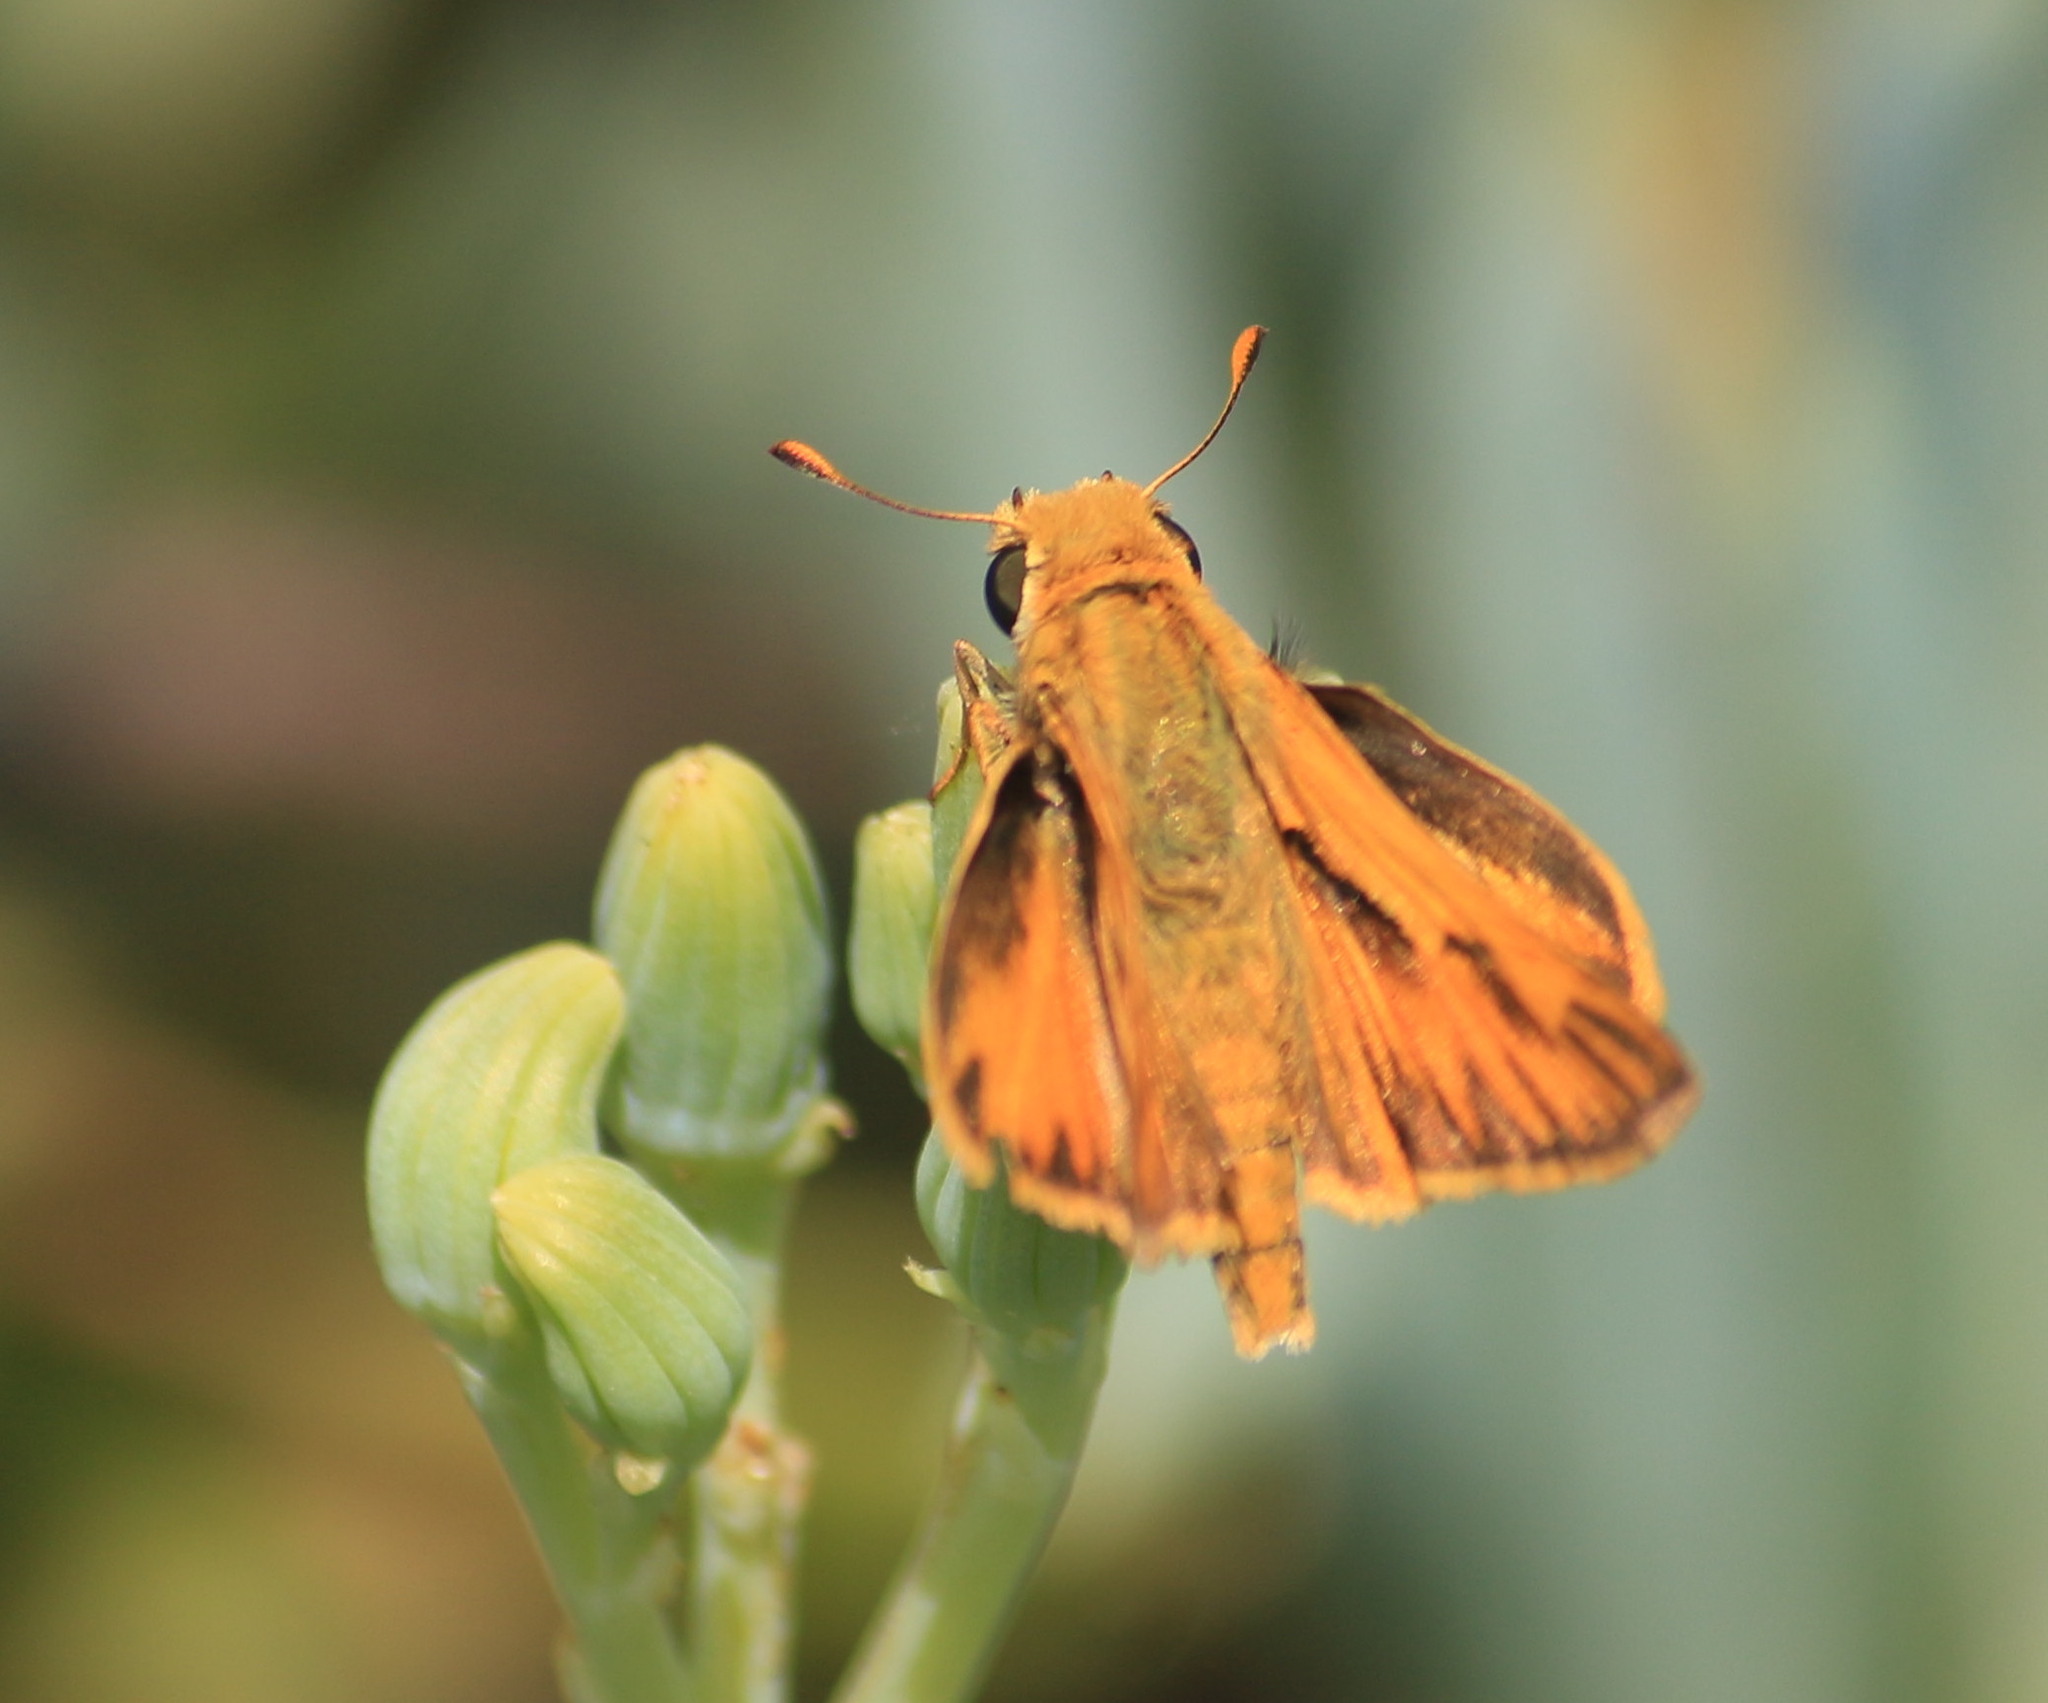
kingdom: Animalia
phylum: Arthropoda
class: Insecta
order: Lepidoptera
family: Hesperiidae
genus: Hylephila
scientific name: Hylephila phyleus
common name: Fiery skipper
